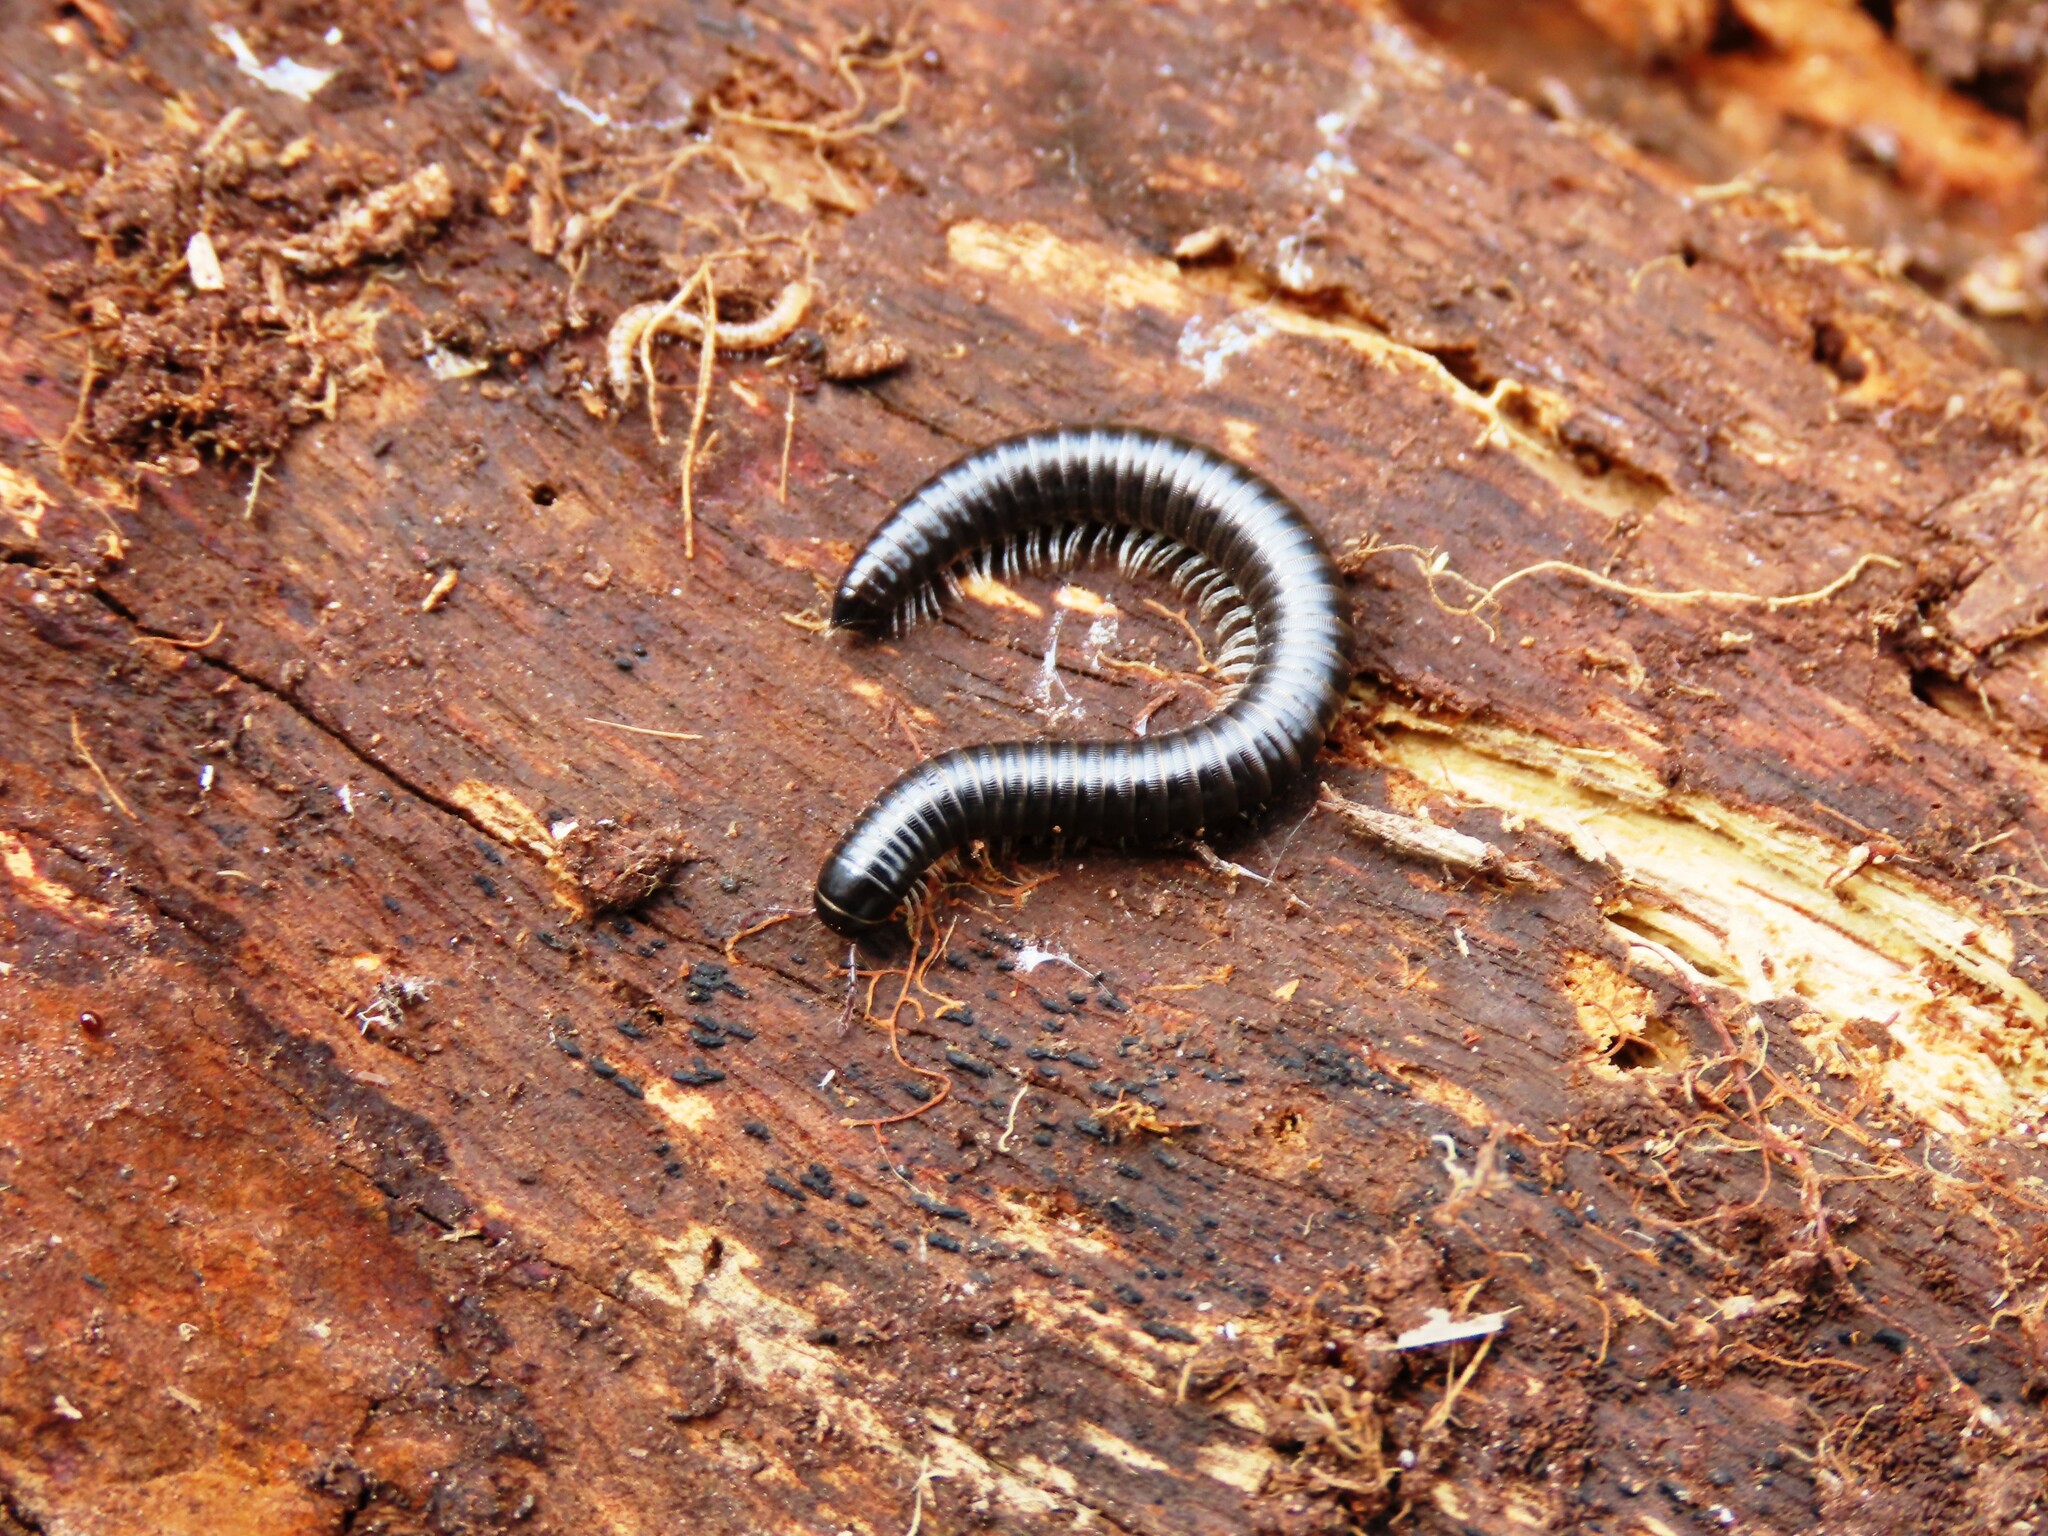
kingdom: Animalia
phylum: Arthropoda
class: Diplopoda
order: Julida
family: Julidae
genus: Ommatoiulus
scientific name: Ommatoiulus moreleti
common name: Portuguese millipede
